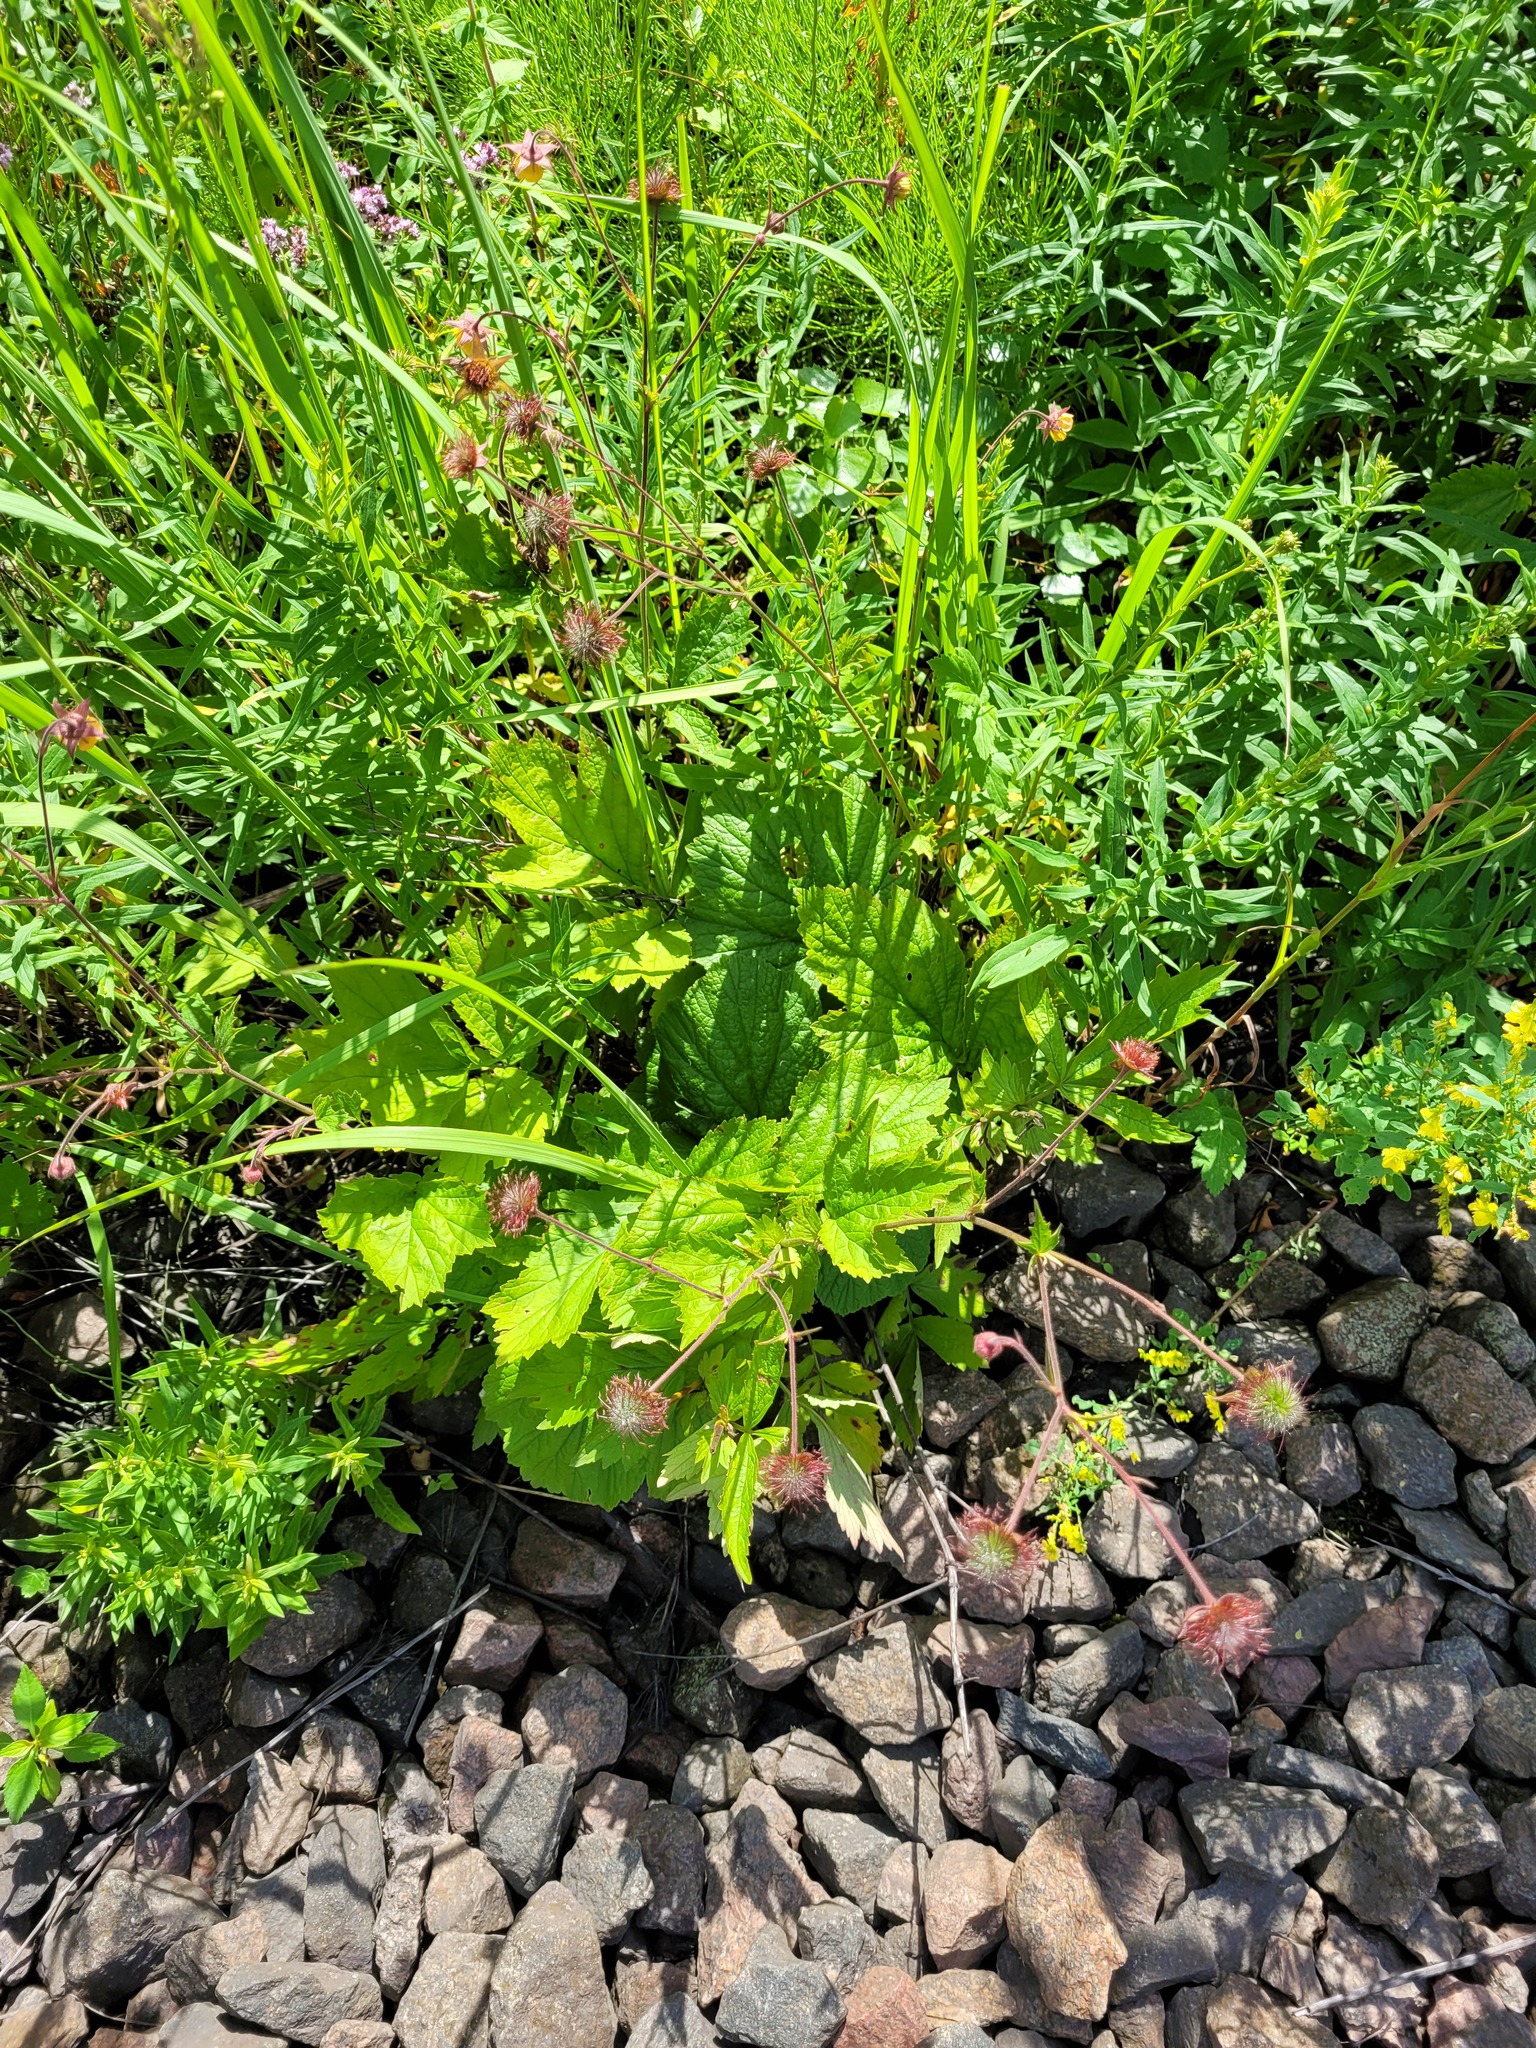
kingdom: Plantae
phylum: Tracheophyta
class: Magnoliopsida
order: Rosales
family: Rosaceae
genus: Geum
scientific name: Geum intermedium
